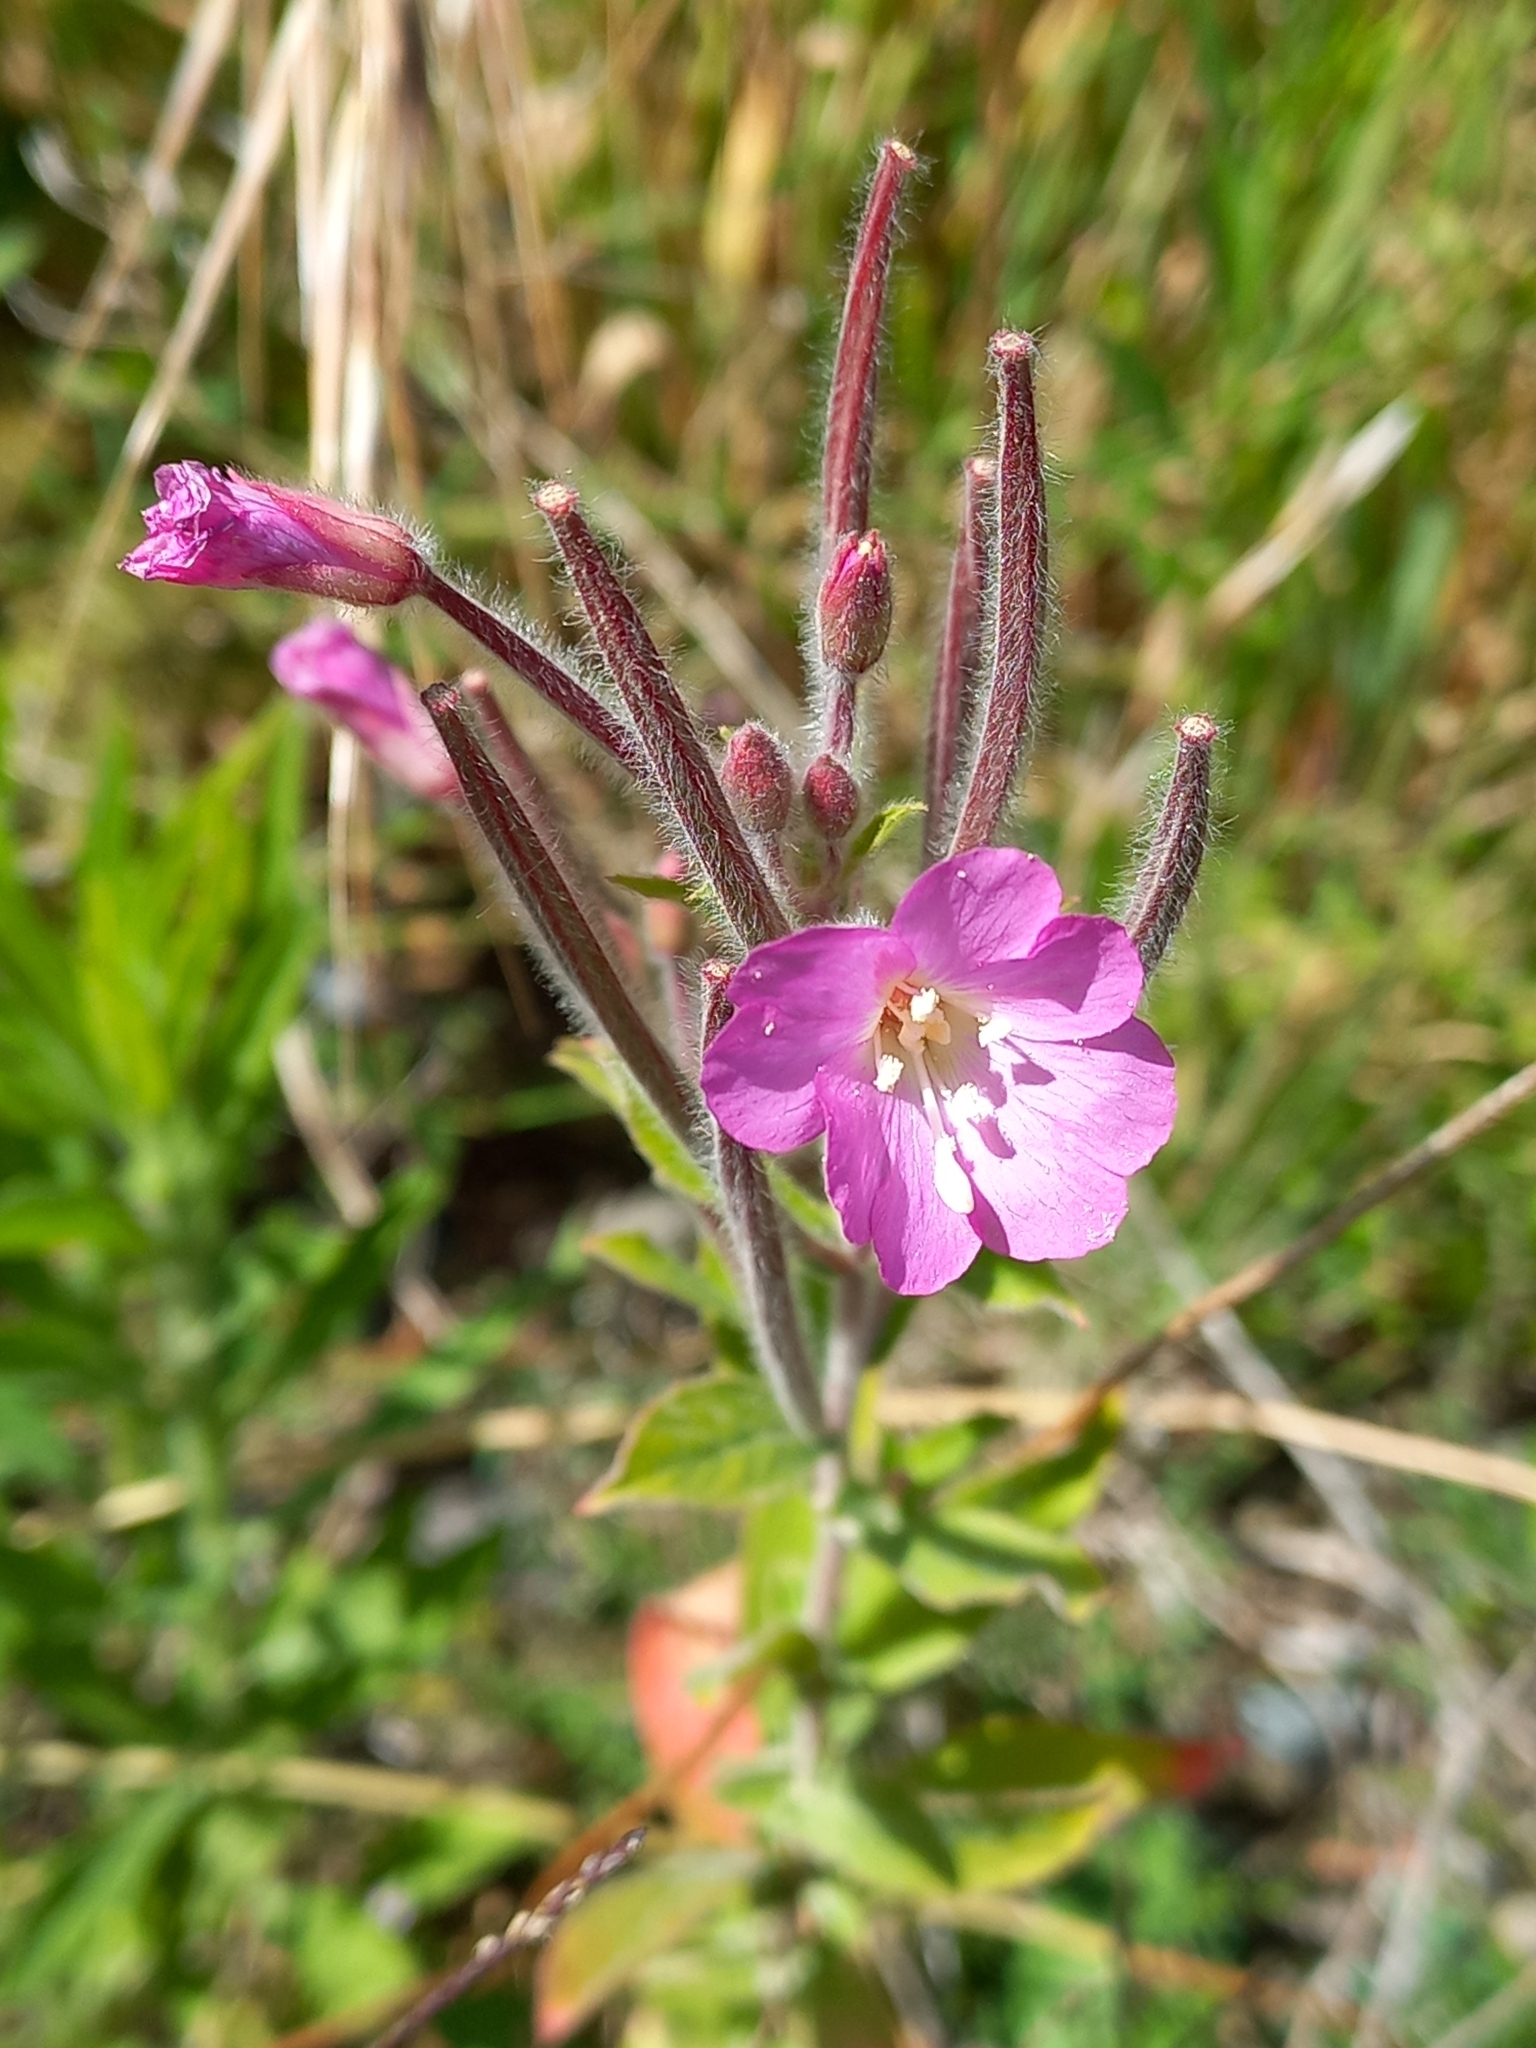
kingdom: Plantae
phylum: Tracheophyta
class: Magnoliopsida
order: Myrtales
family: Onagraceae
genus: Epilobium
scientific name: Epilobium hirsutum
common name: Great willowherb
